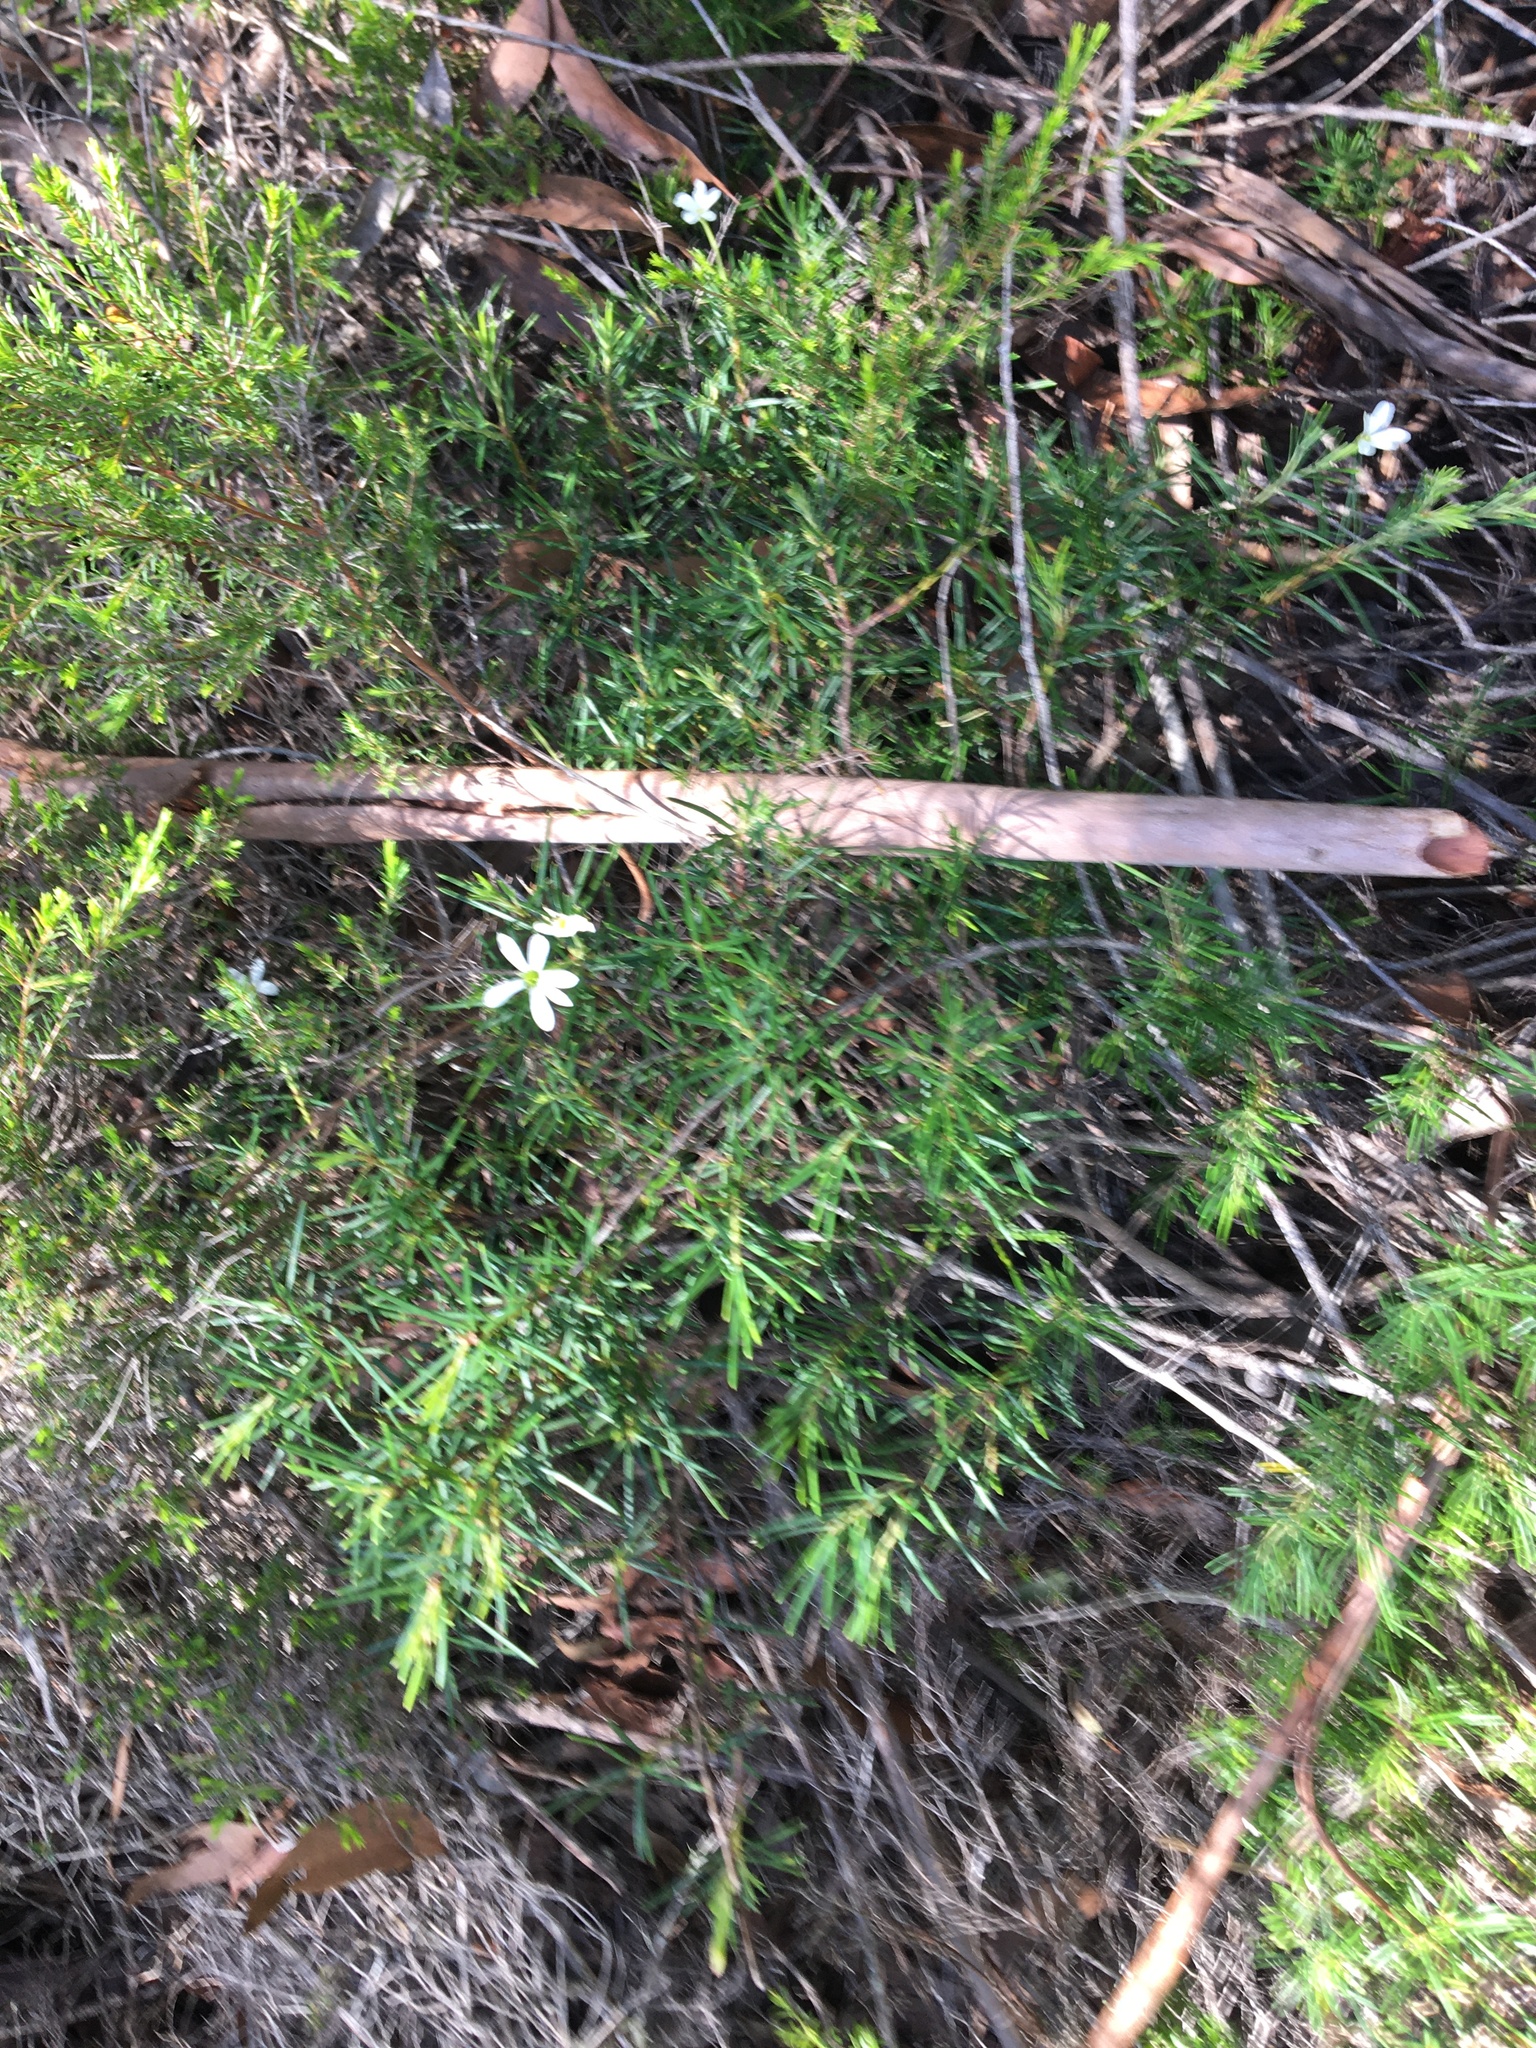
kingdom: Plantae
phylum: Tracheophyta
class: Magnoliopsida
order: Malpighiales
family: Euphorbiaceae
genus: Ricinocarpos
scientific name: Ricinocarpos pinifolius
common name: Weddingbush
